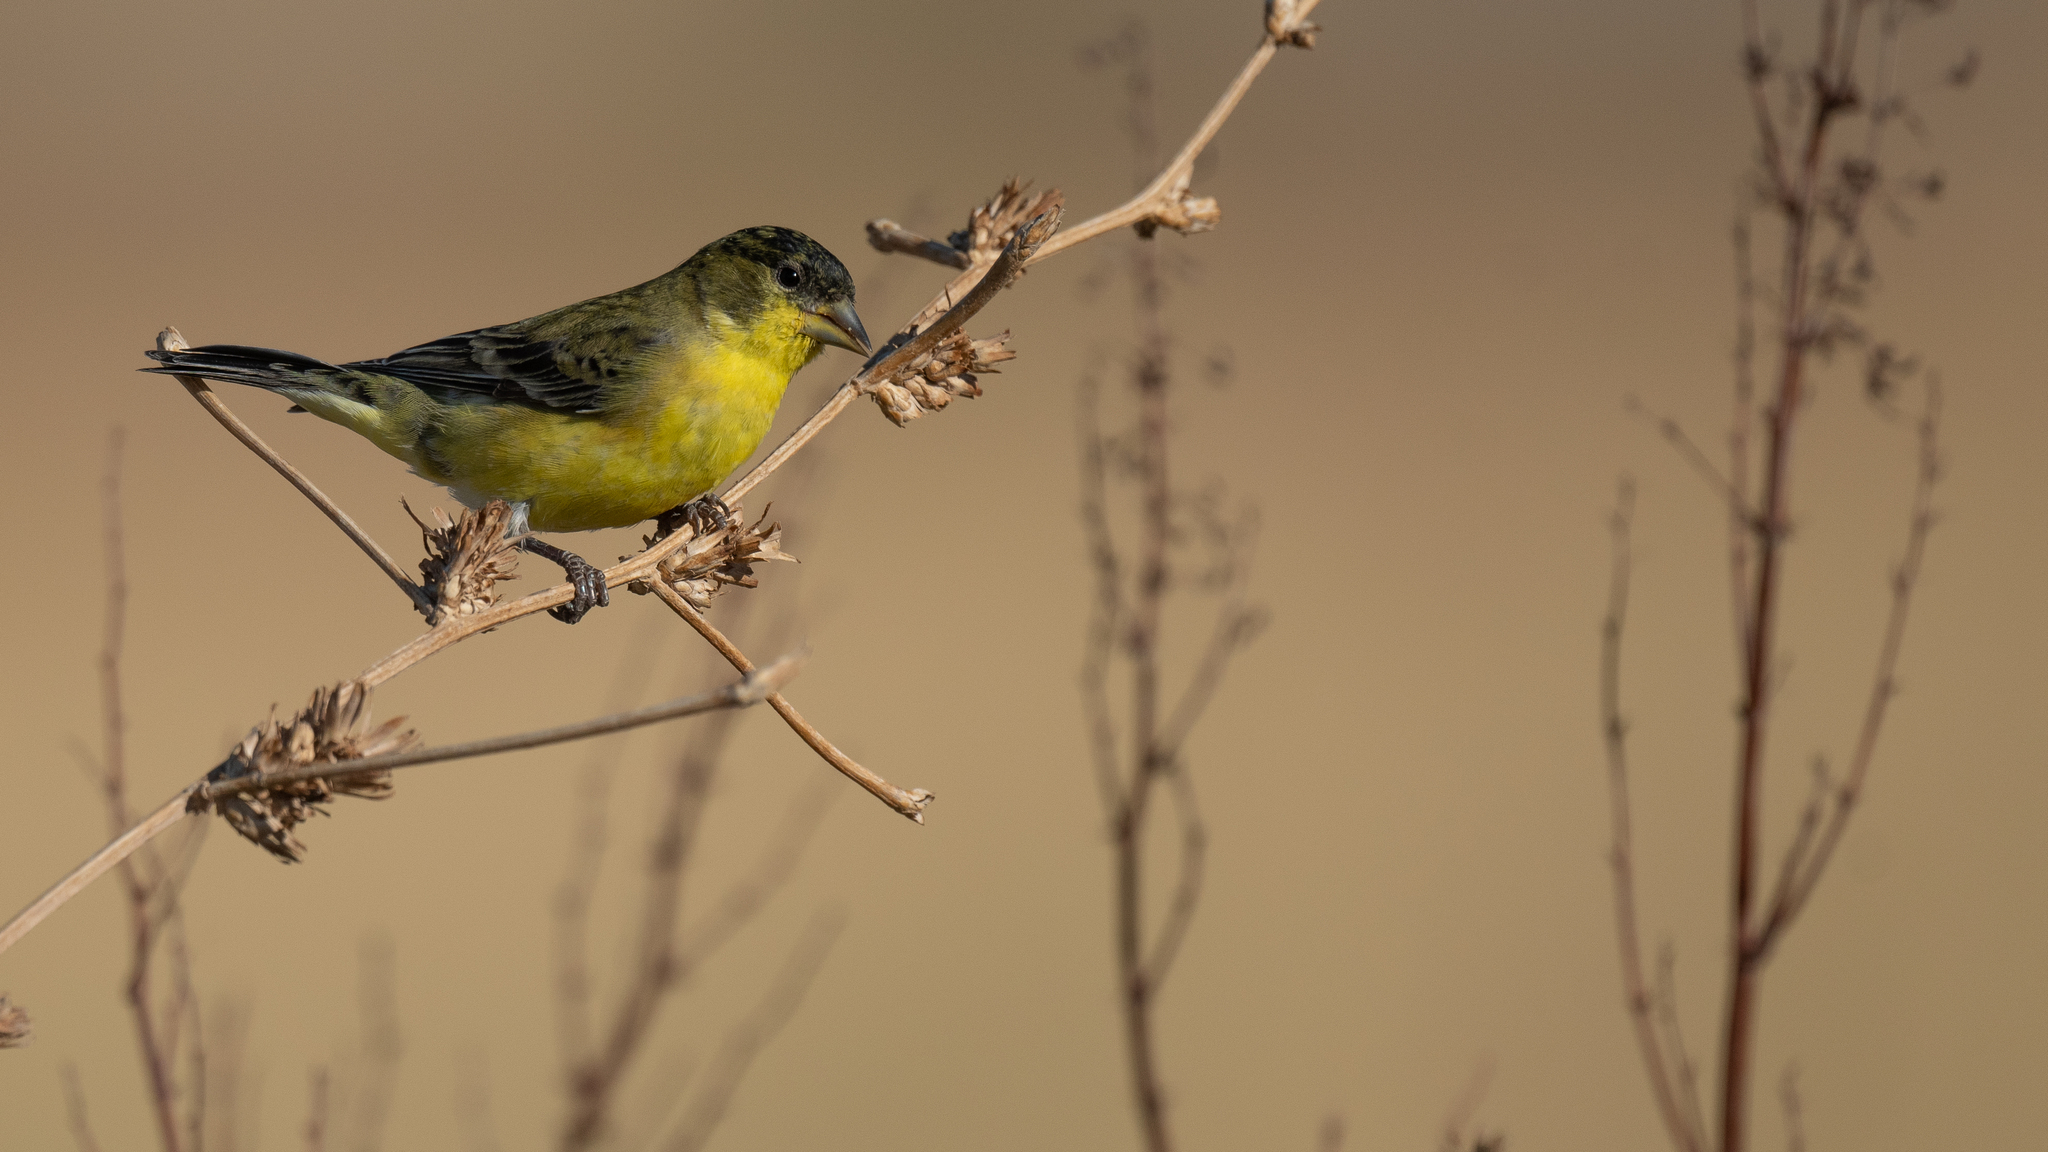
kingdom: Animalia
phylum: Chordata
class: Aves
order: Passeriformes
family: Fringillidae
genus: Spinus
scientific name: Spinus psaltria
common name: Lesser goldfinch
